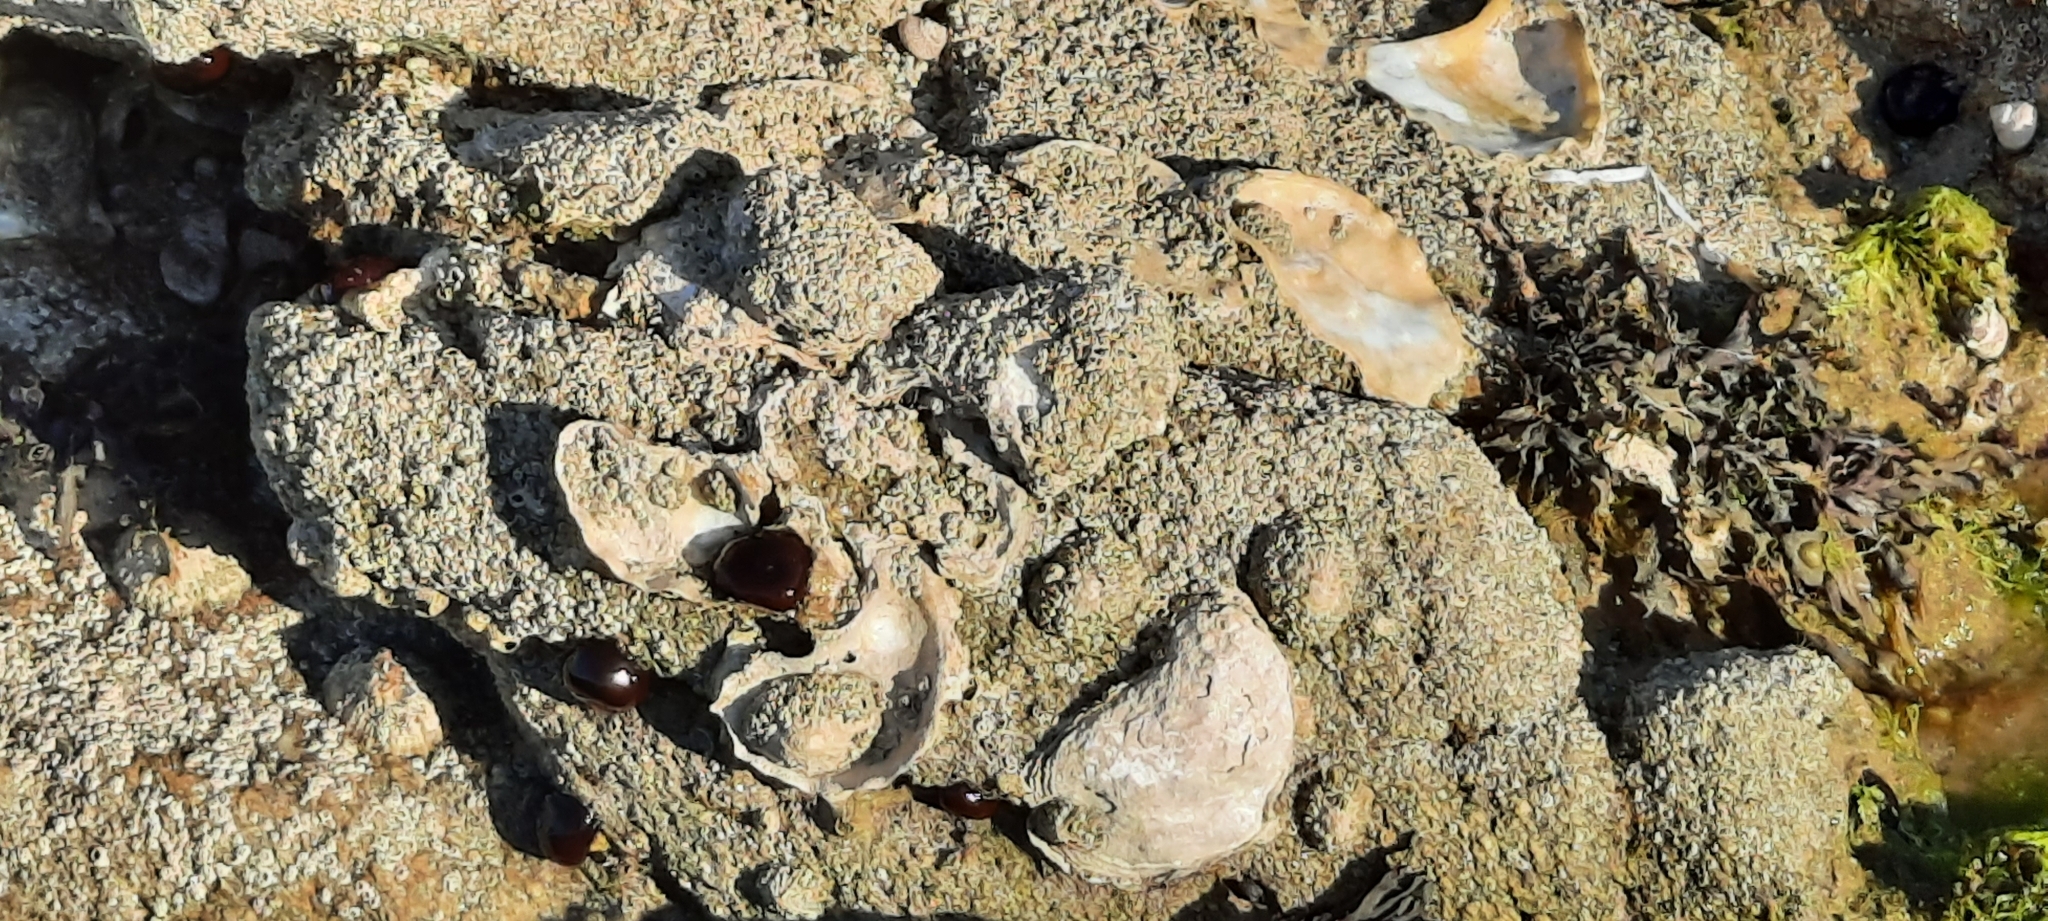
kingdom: Animalia
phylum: Mollusca
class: Bivalvia
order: Ostreida
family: Ostreidae
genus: Magallana
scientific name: Magallana gigas
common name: Pacific oyster
